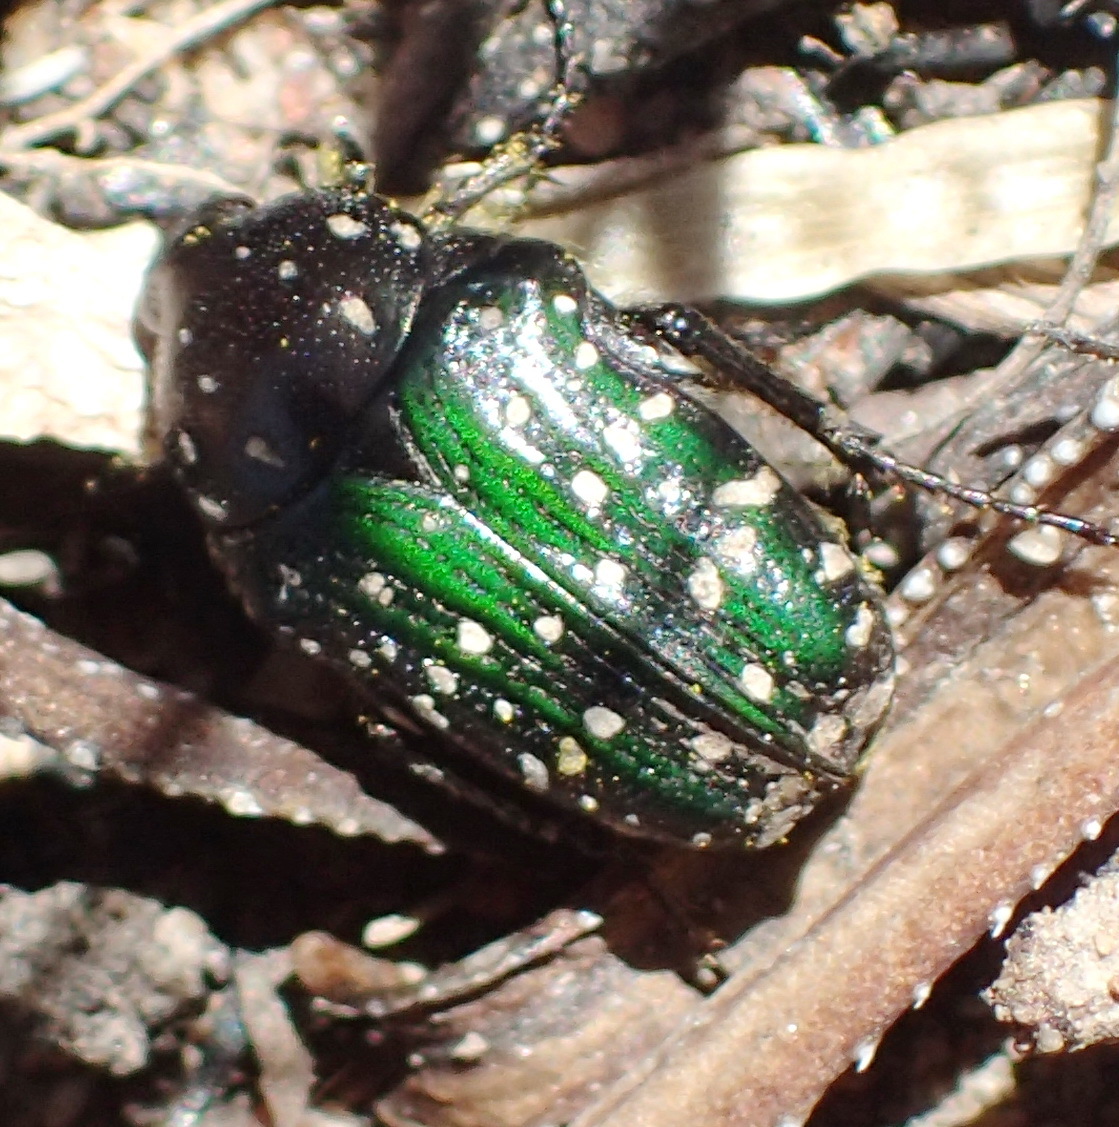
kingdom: Animalia
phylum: Arthropoda
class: Insecta
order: Coleoptera
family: Scarabaeidae
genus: Leucocelis
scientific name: Leucocelis adspersa
